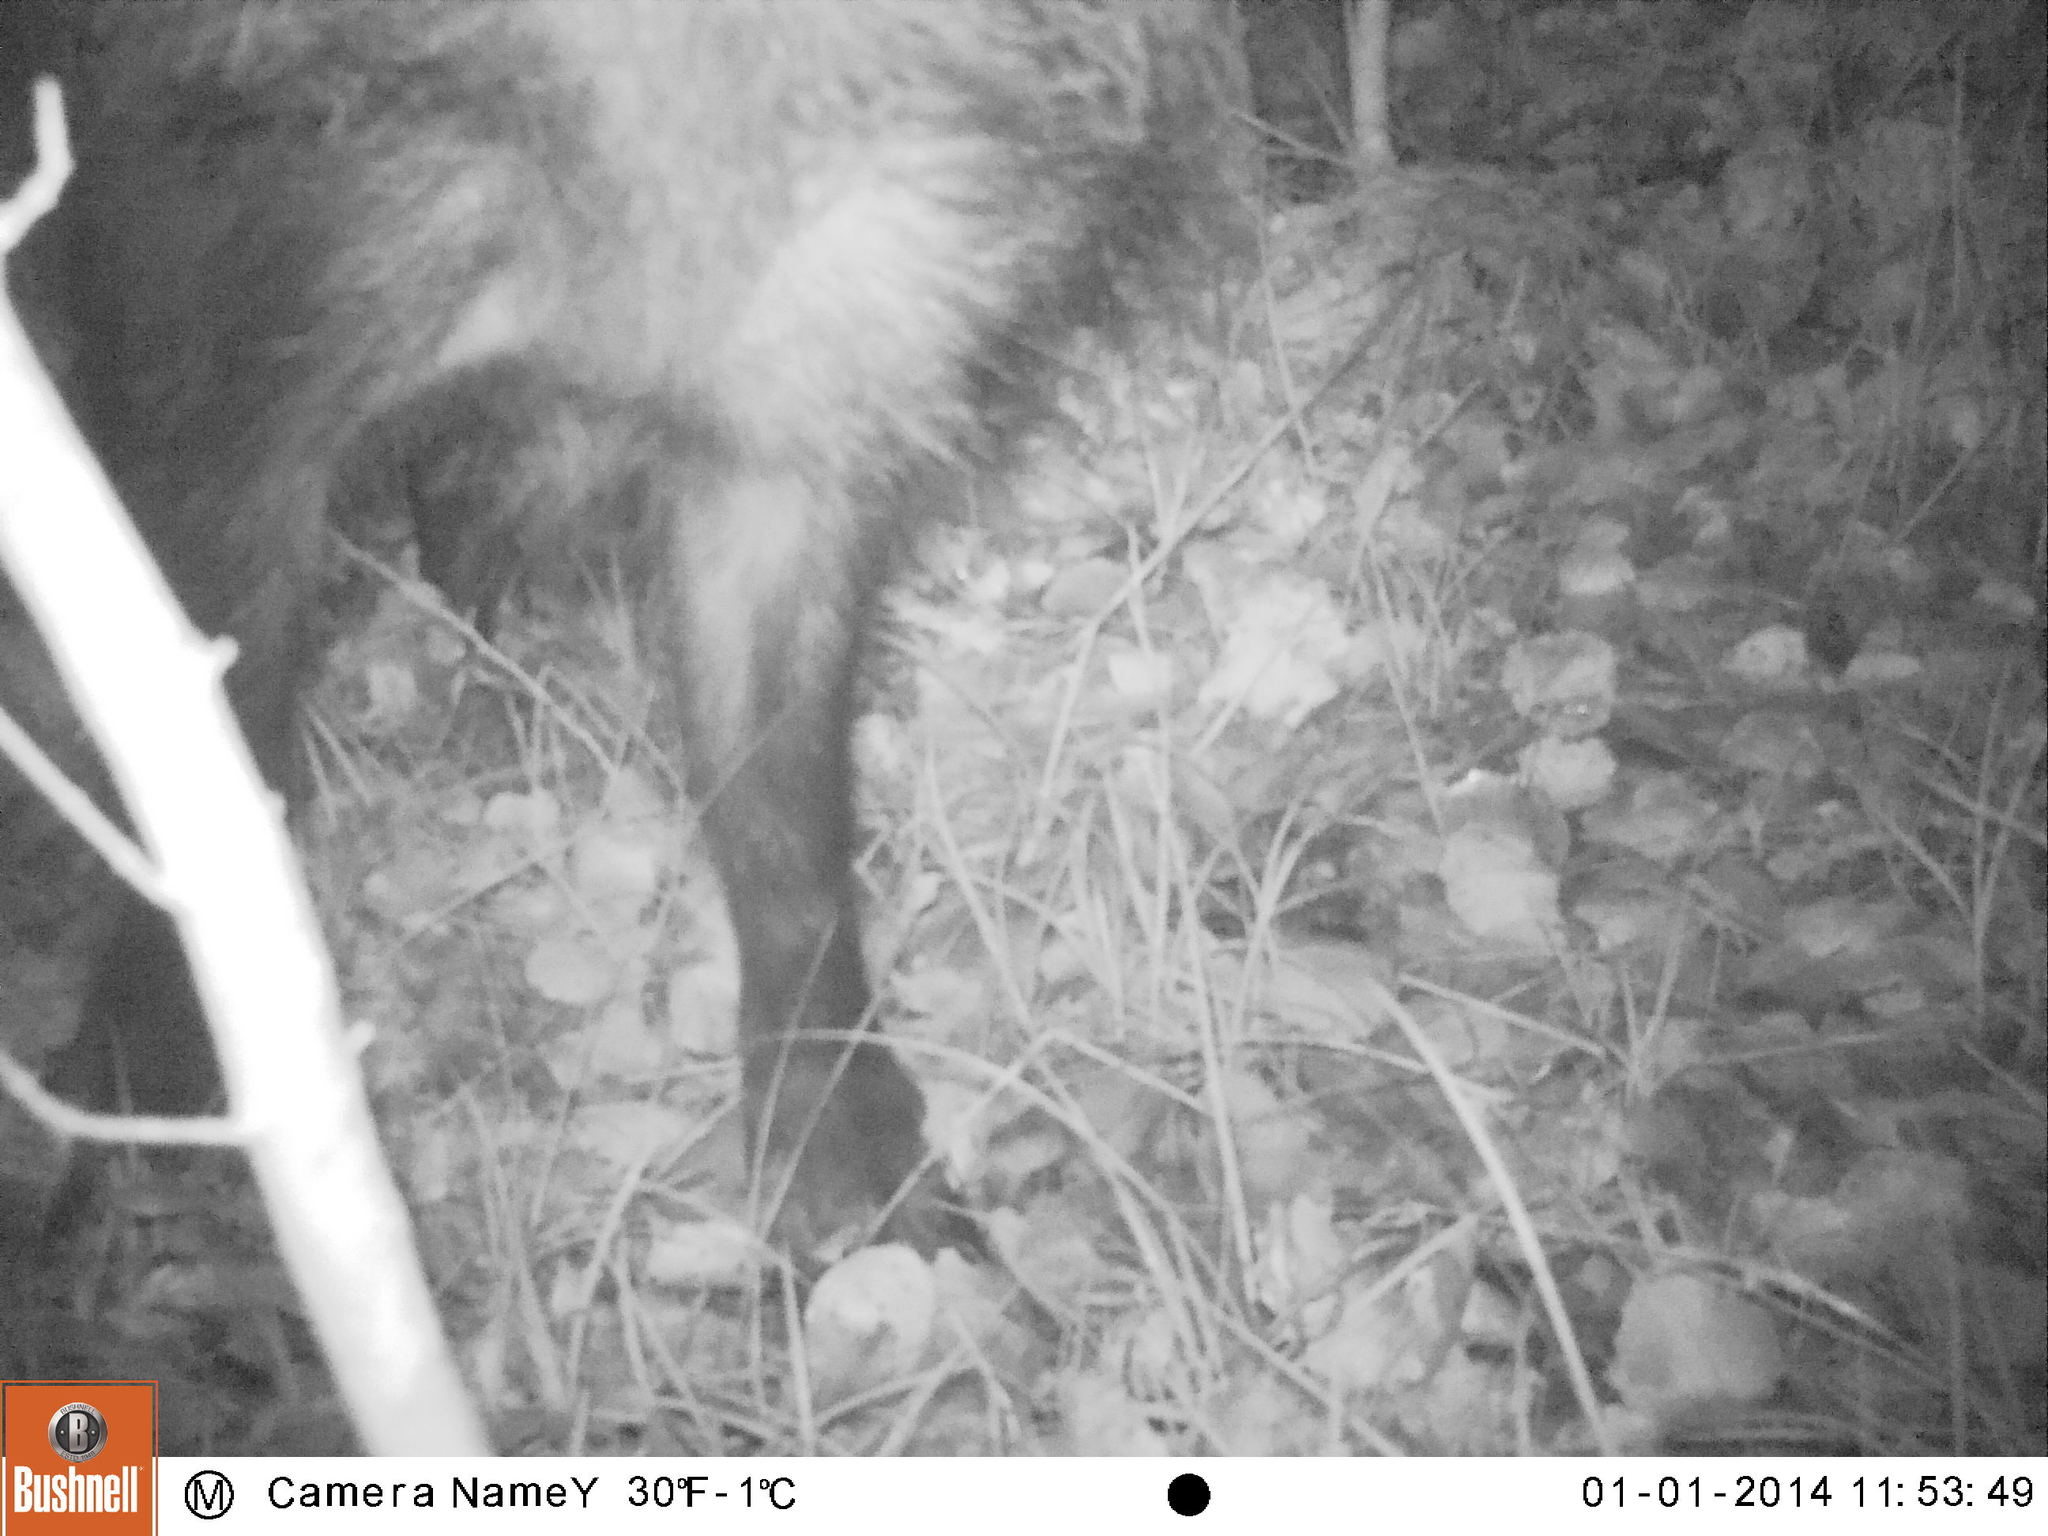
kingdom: Animalia
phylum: Chordata
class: Mammalia
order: Artiodactyla
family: Suidae
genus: Sus
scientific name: Sus scrofa
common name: Wild boar
